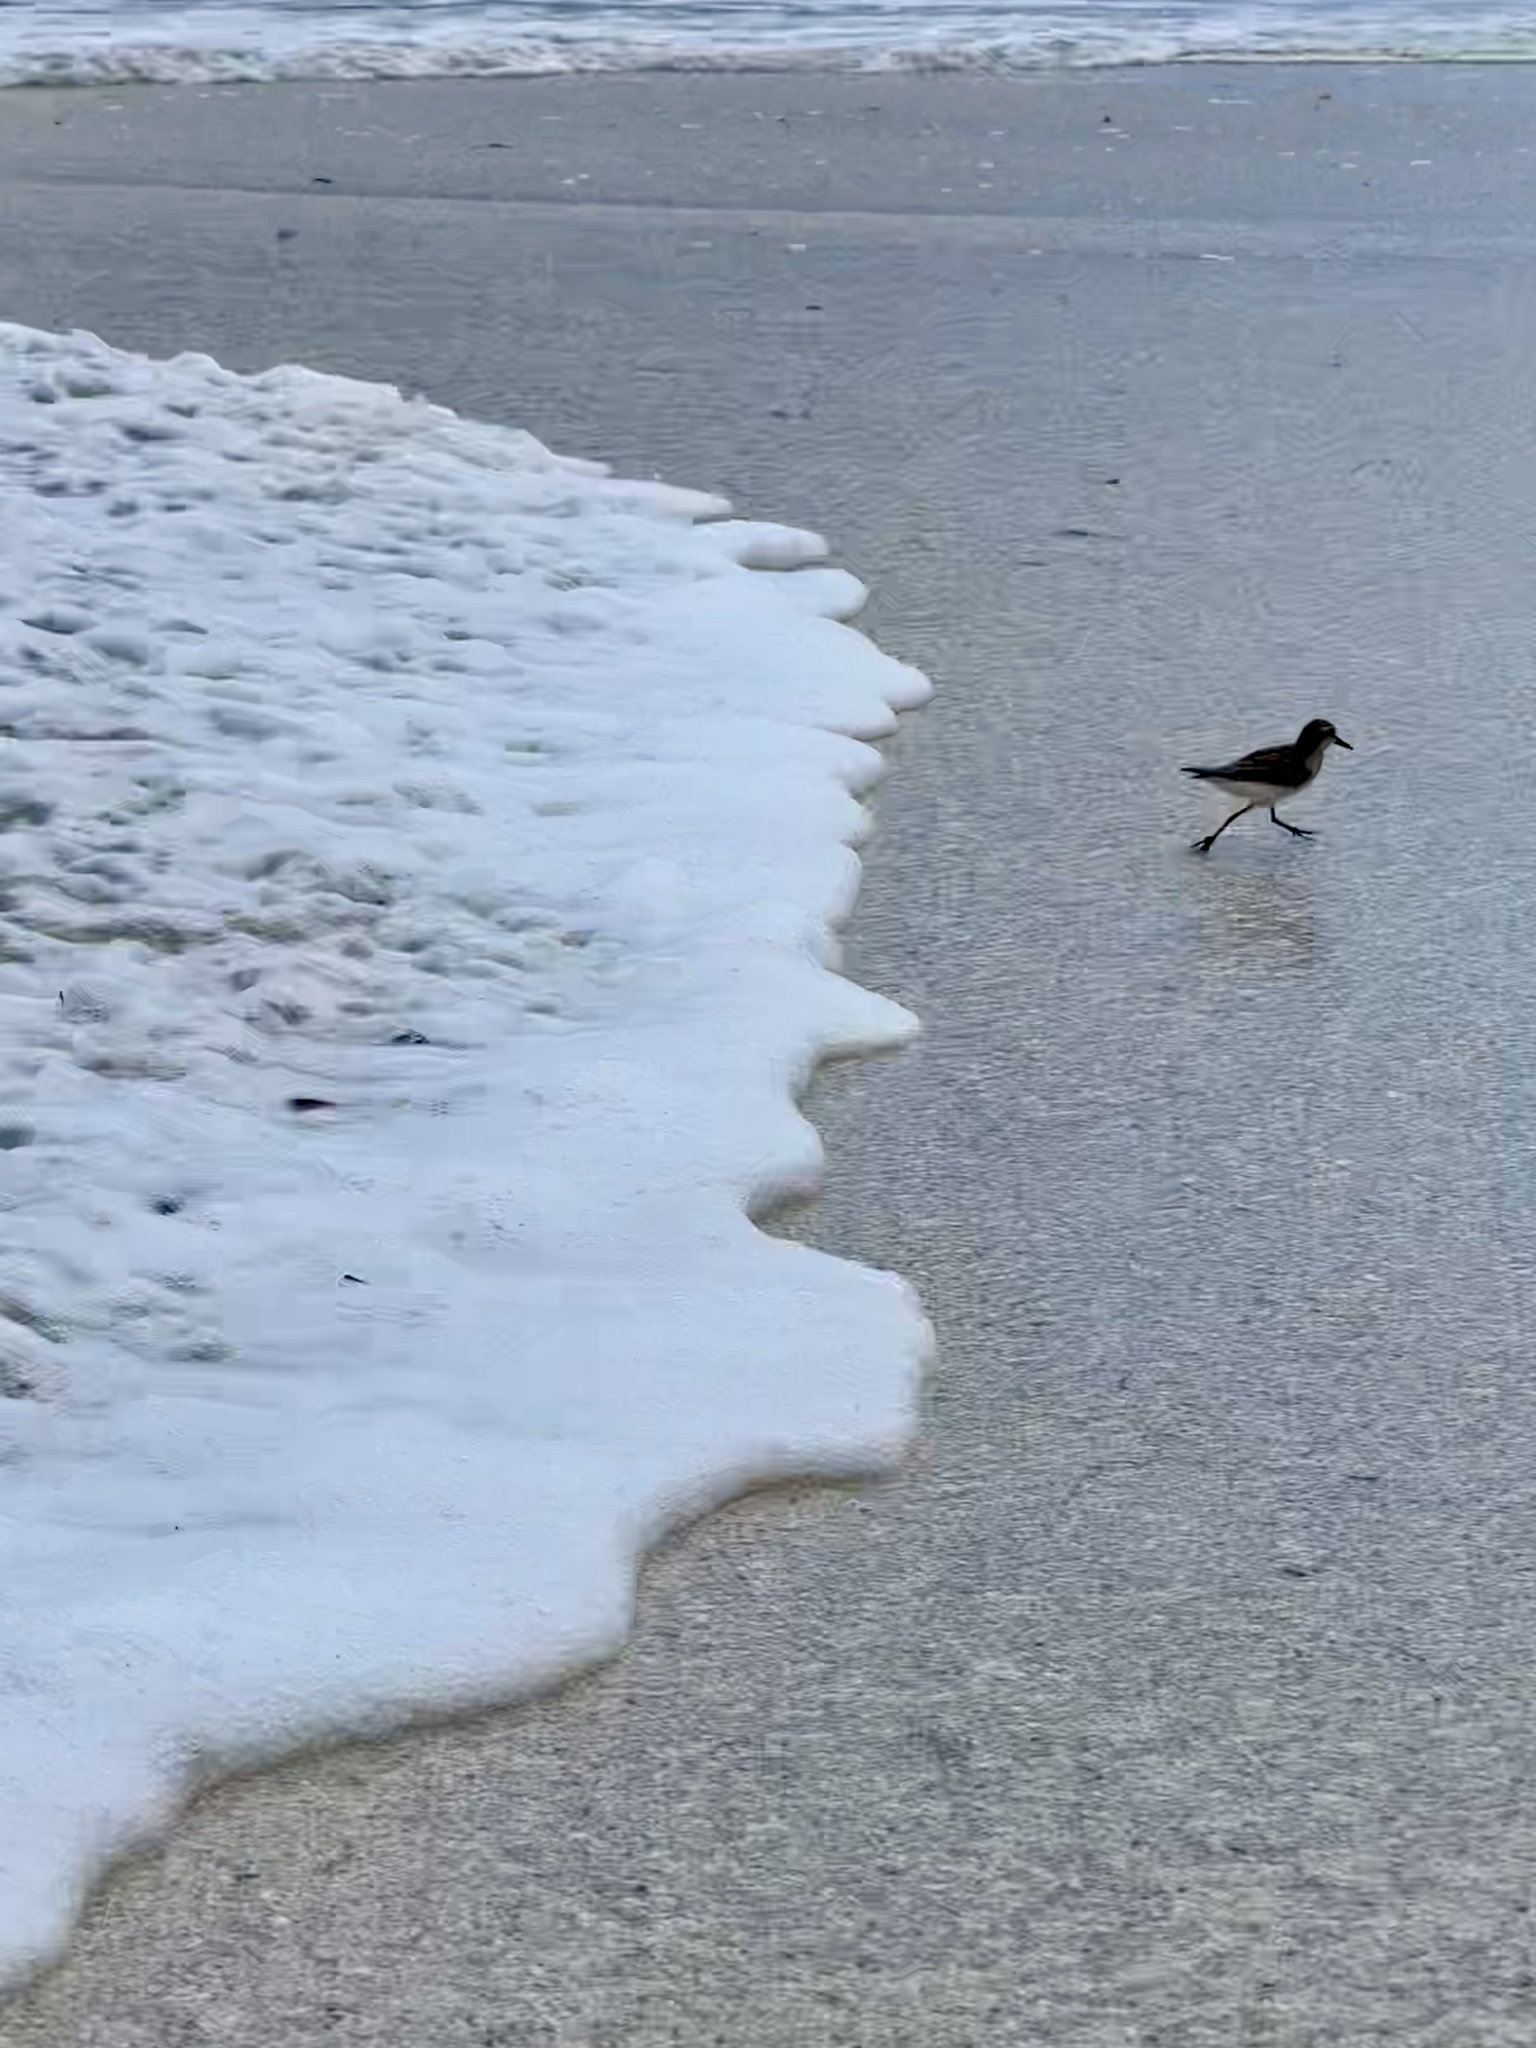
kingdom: Animalia
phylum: Chordata
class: Aves
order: Charadriiformes
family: Scolopacidae
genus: Calidris
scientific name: Calidris pusilla
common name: Semipalmated sandpiper
